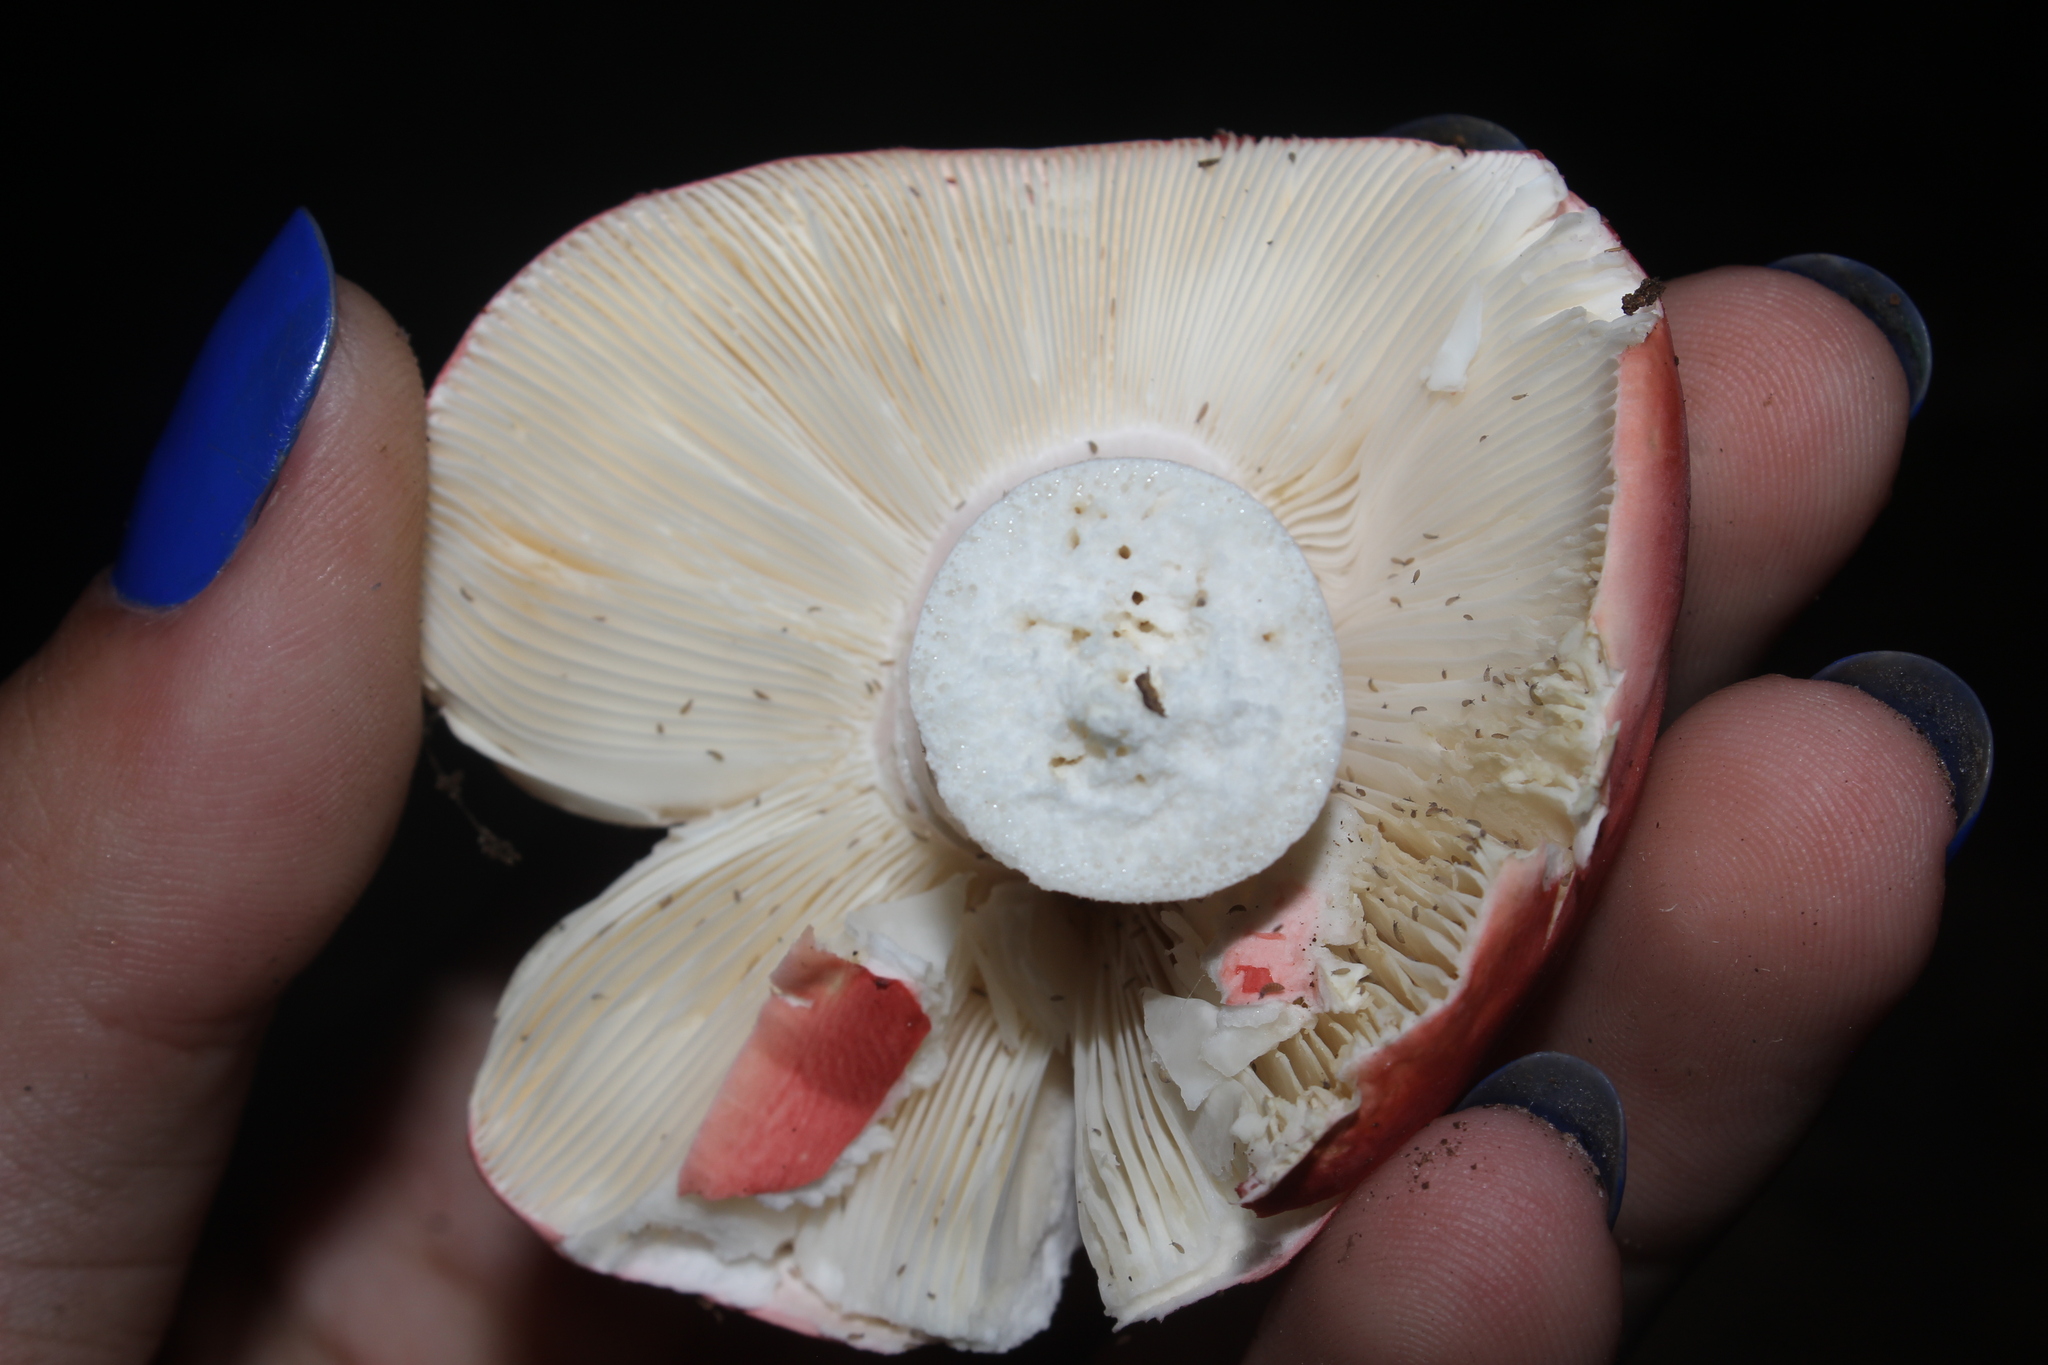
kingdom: Fungi
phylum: Basidiomycota
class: Agaricomycetes
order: Russulales
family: Russulaceae
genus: Russula
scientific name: Russula
